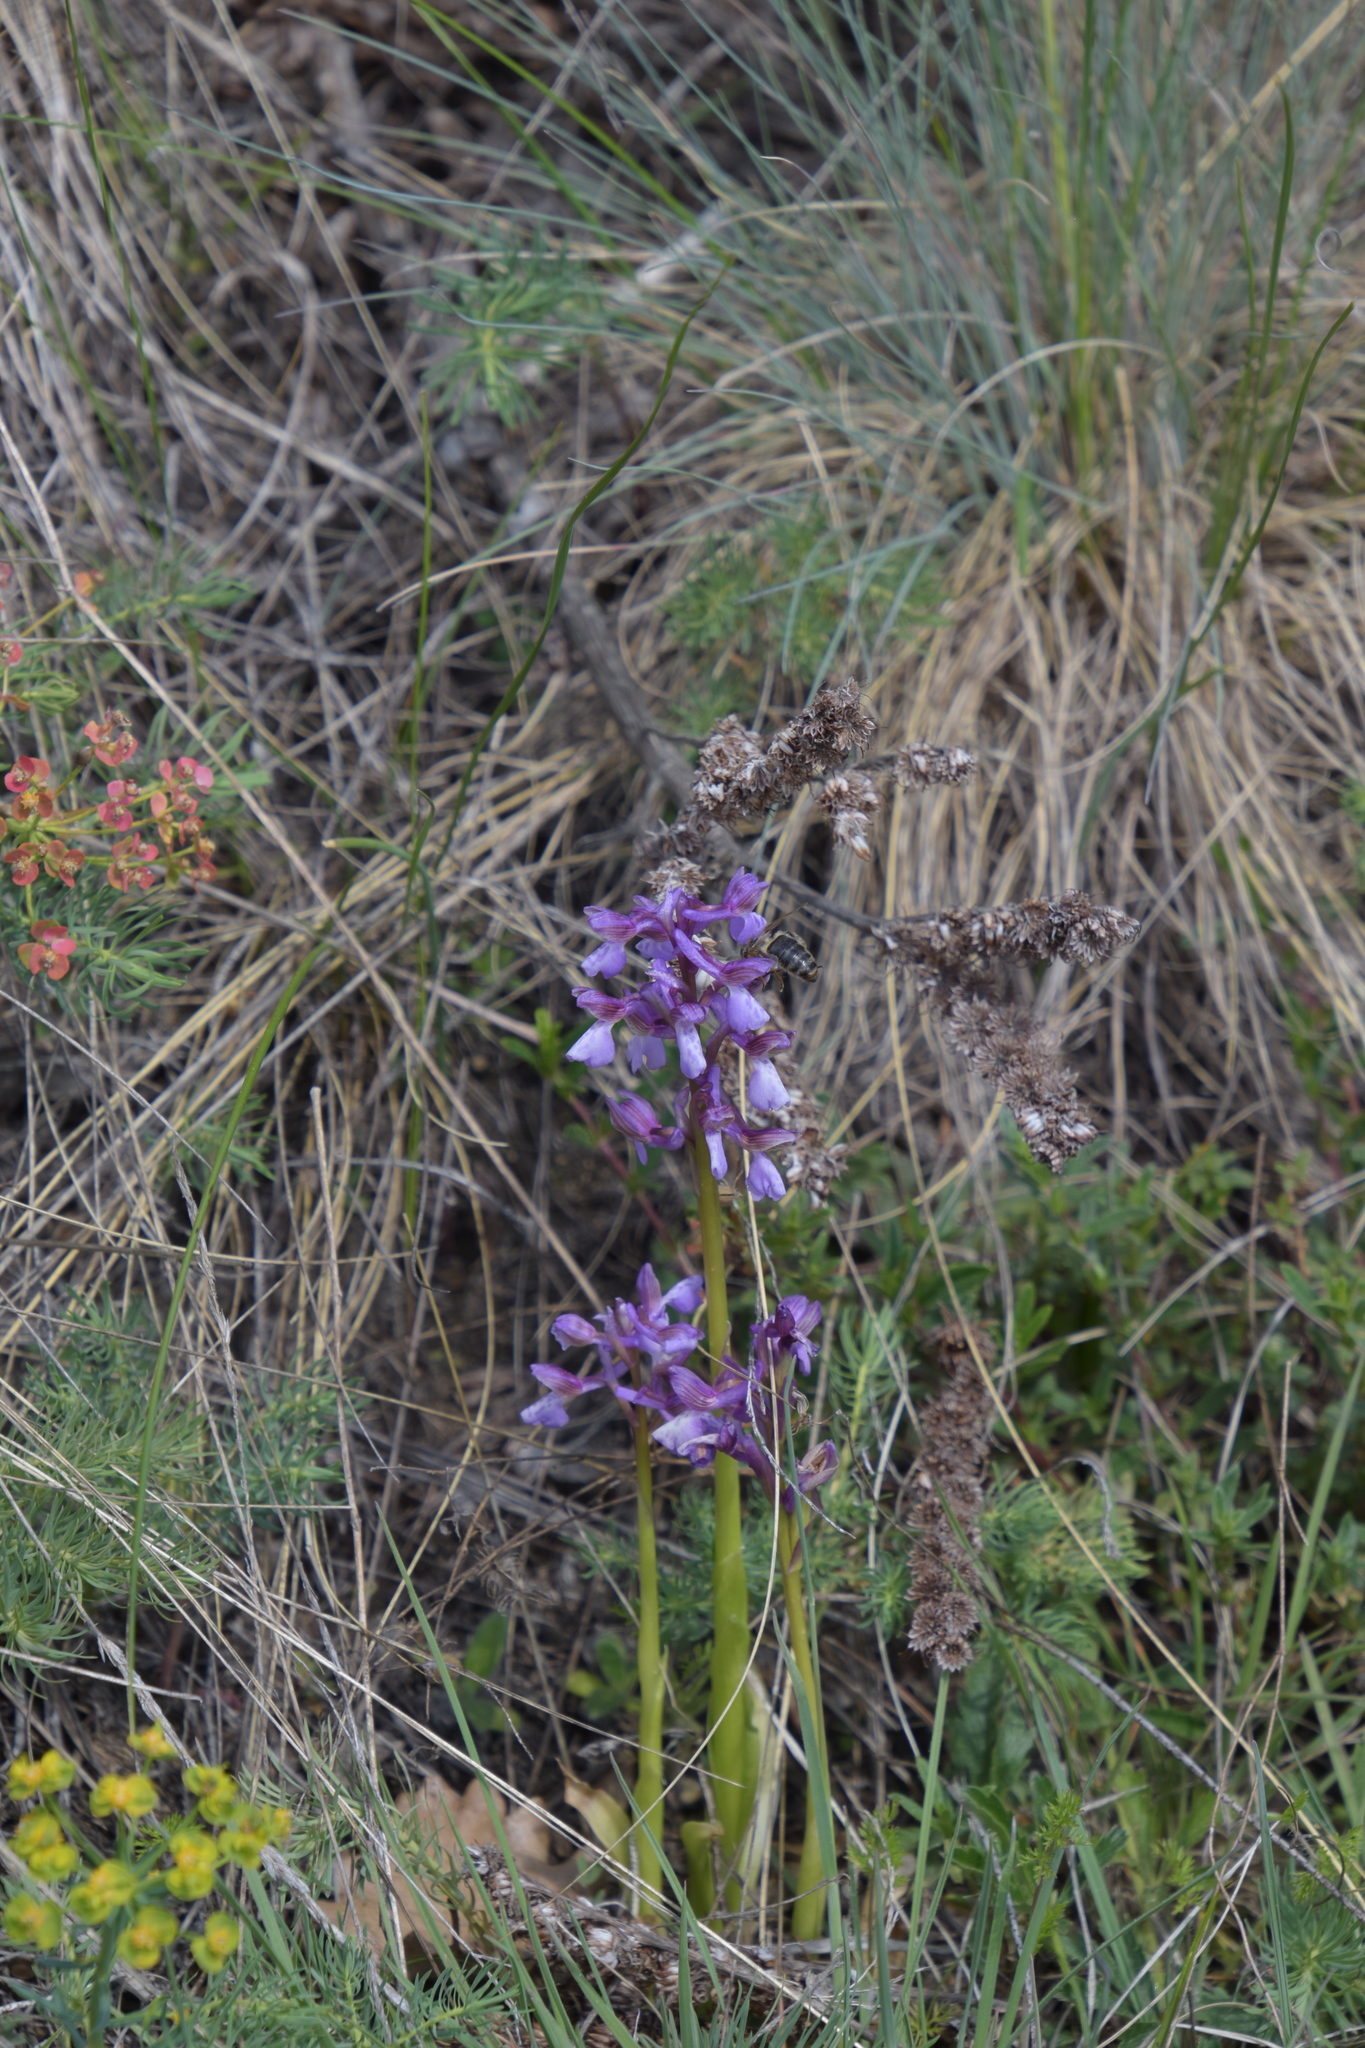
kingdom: Plantae
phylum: Tracheophyta
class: Liliopsida
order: Asparagales
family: Orchidaceae
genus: Anacamptis
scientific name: Anacamptis morio
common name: Green-winged orchid
